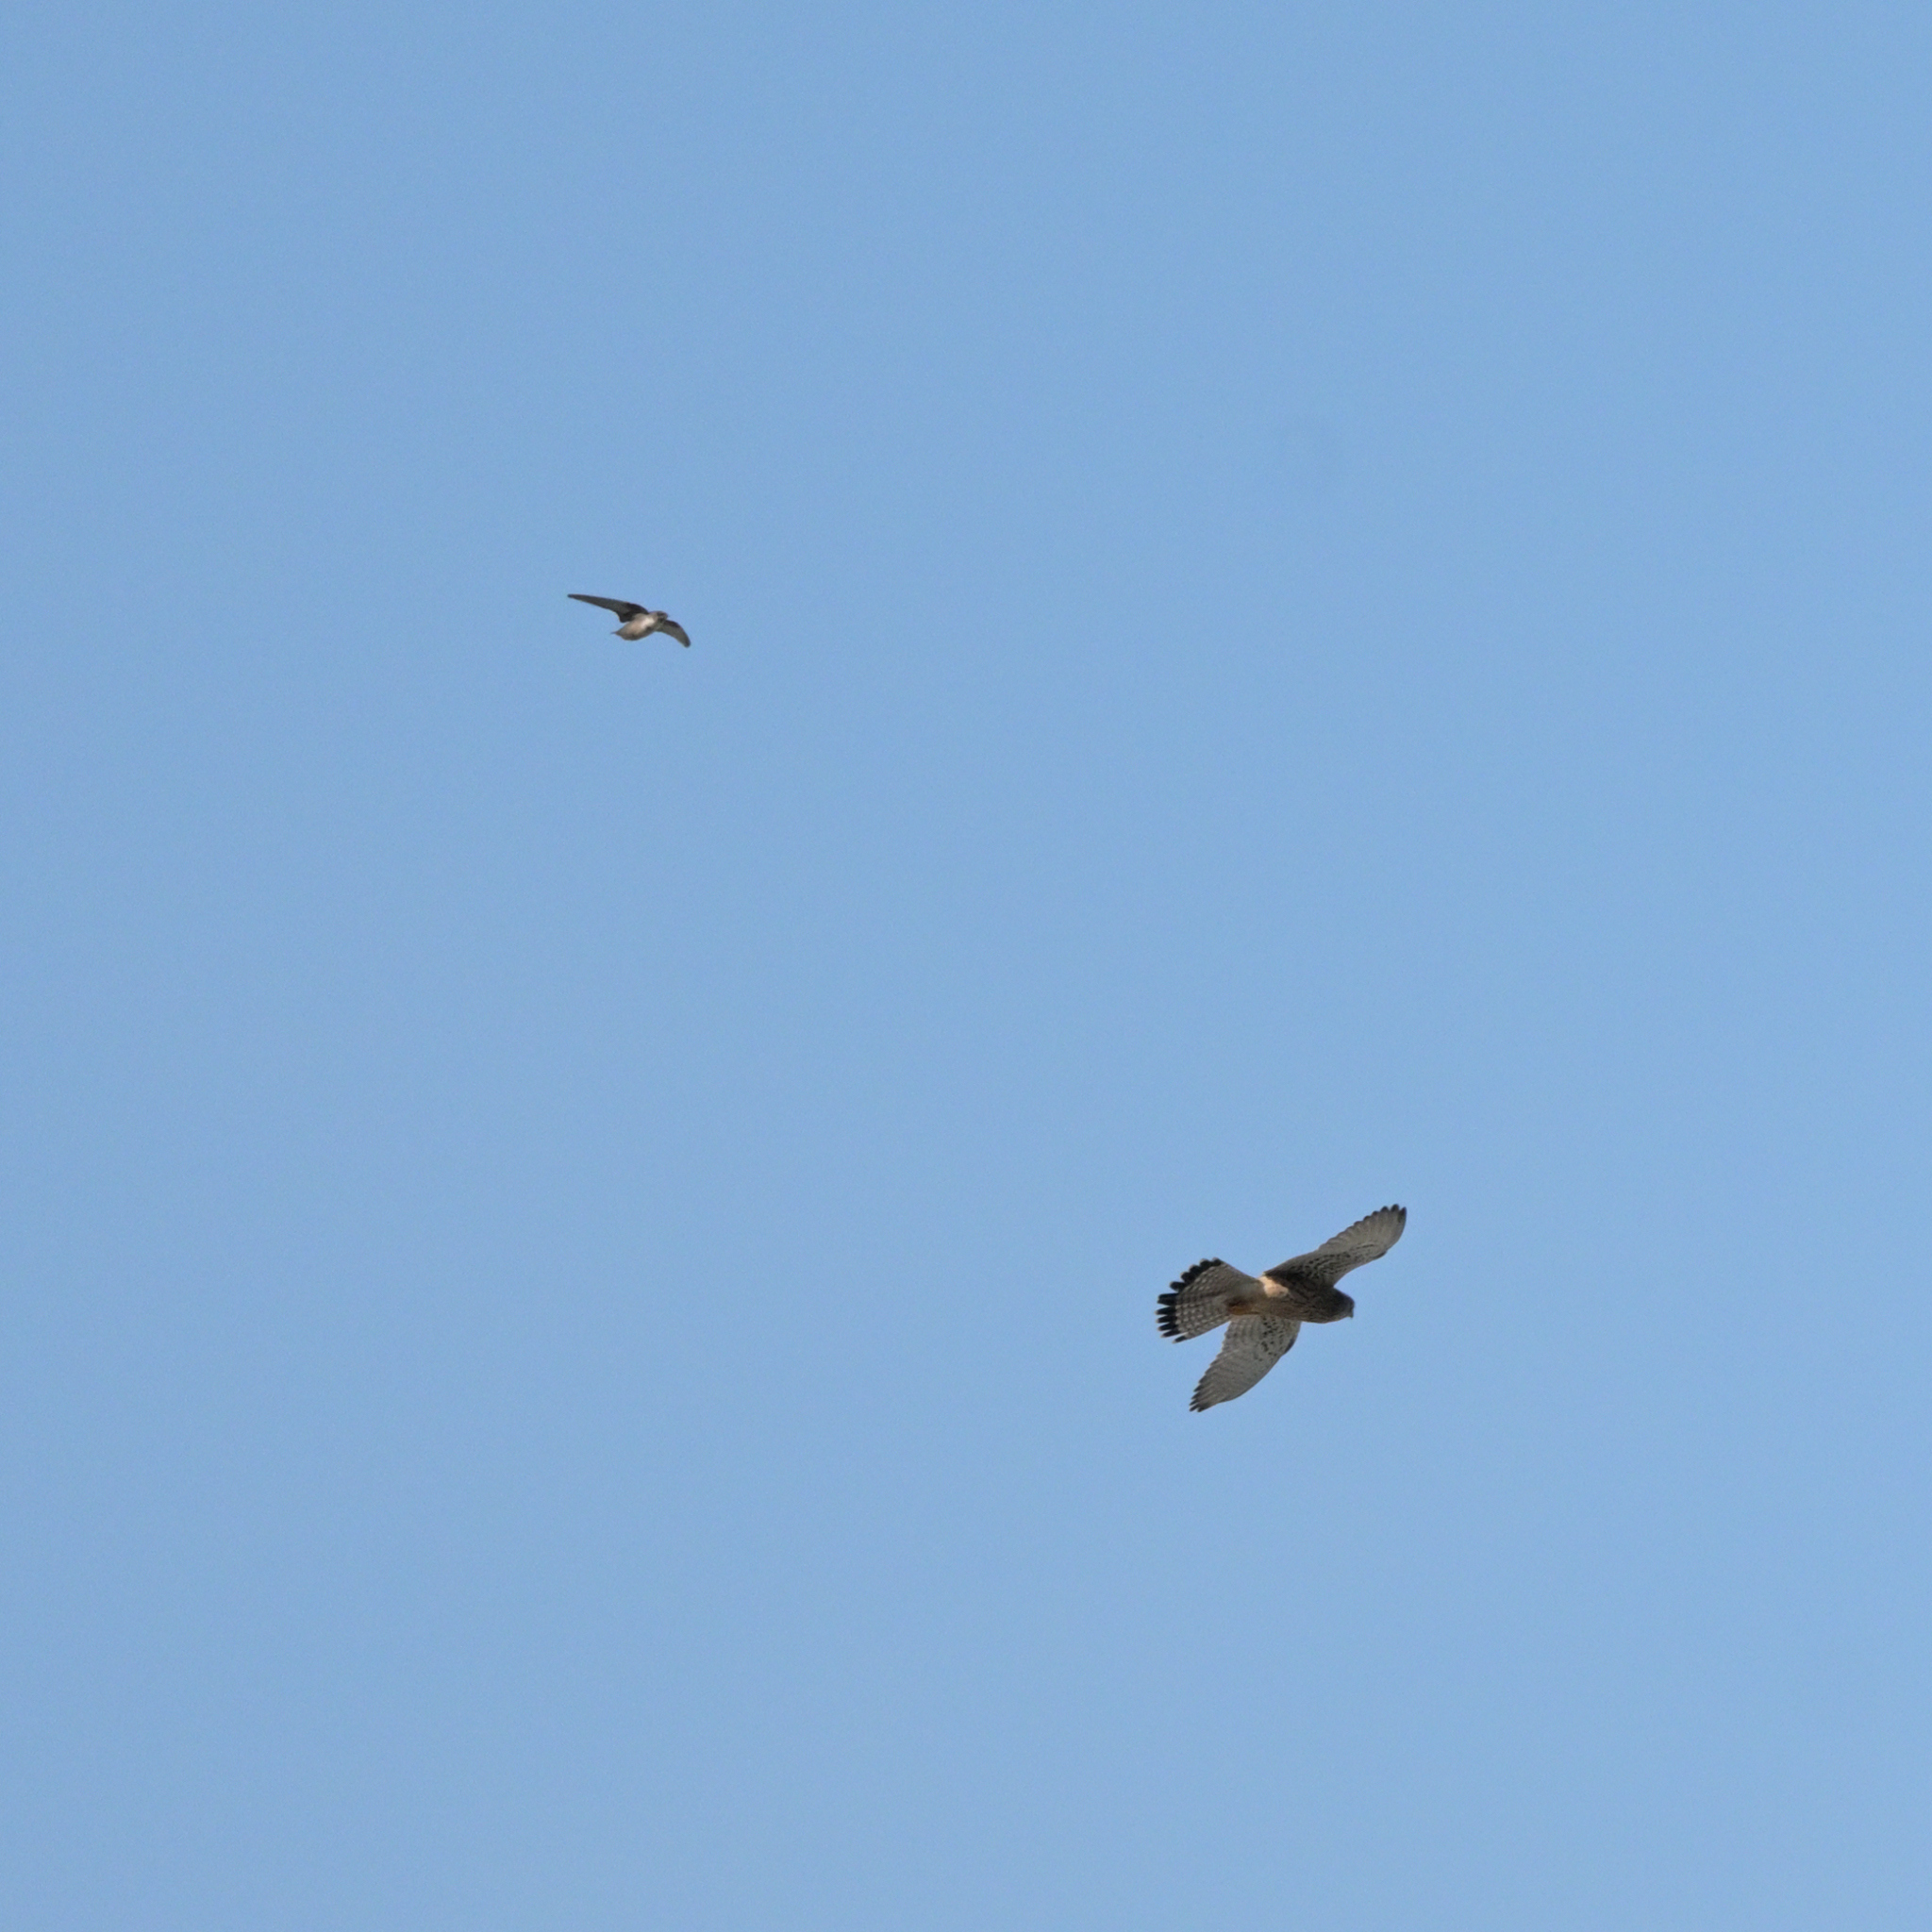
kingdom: Animalia
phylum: Chordata
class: Aves
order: Falconiformes
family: Falconidae
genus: Falco
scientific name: Falco tinnunculus
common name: Common kestrel
